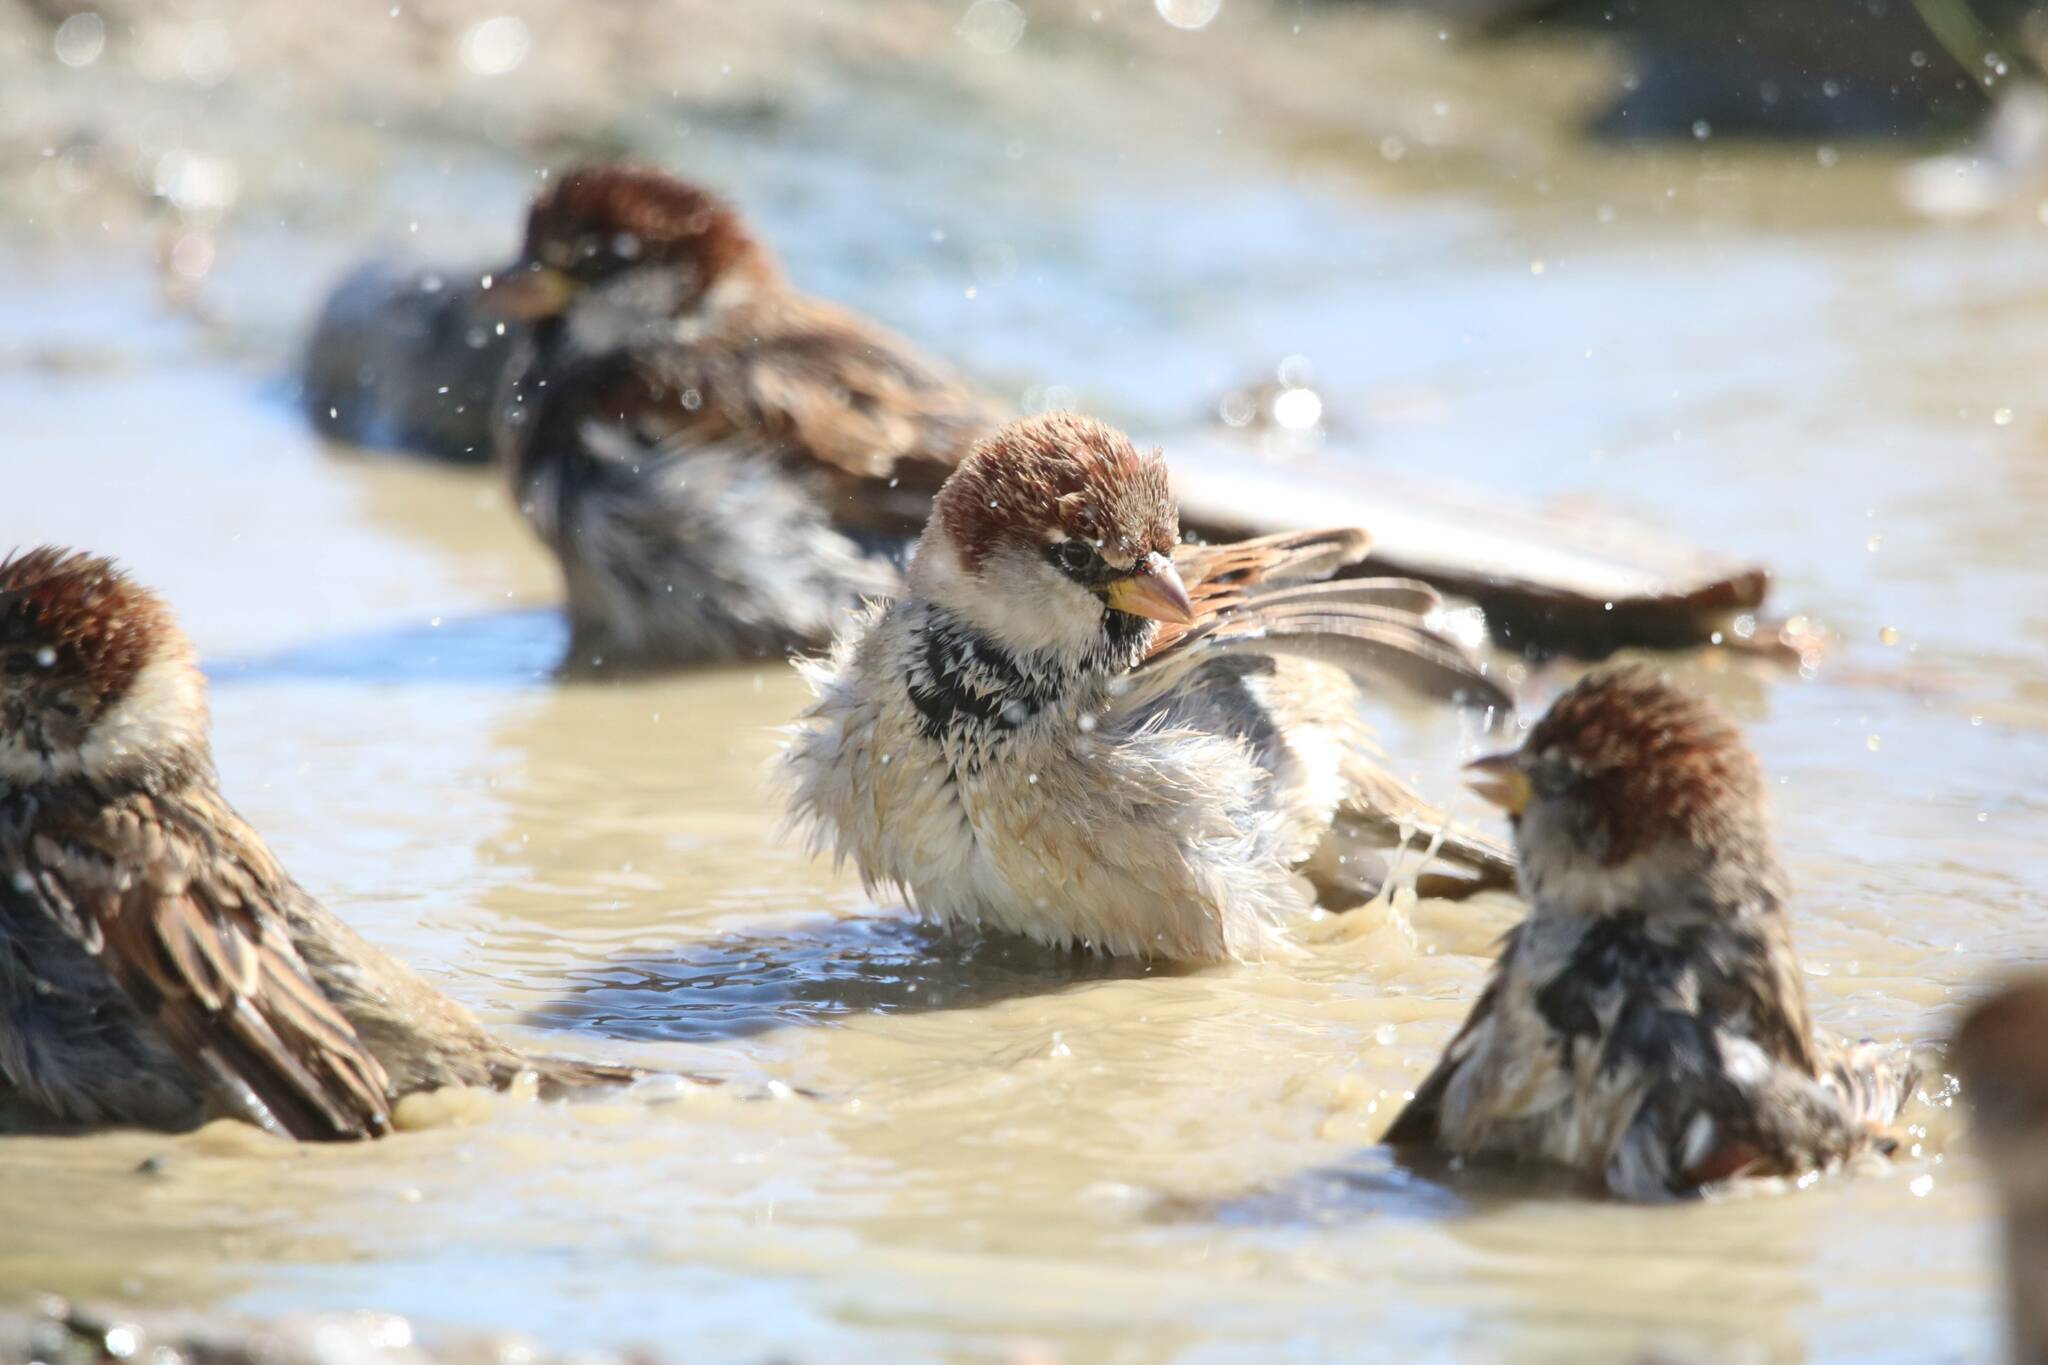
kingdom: Animalia
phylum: Chordata
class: Aves
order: Passeriformes
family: Passeridae
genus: Passer
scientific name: Passer hispaniolensis
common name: Spanish sparrow
